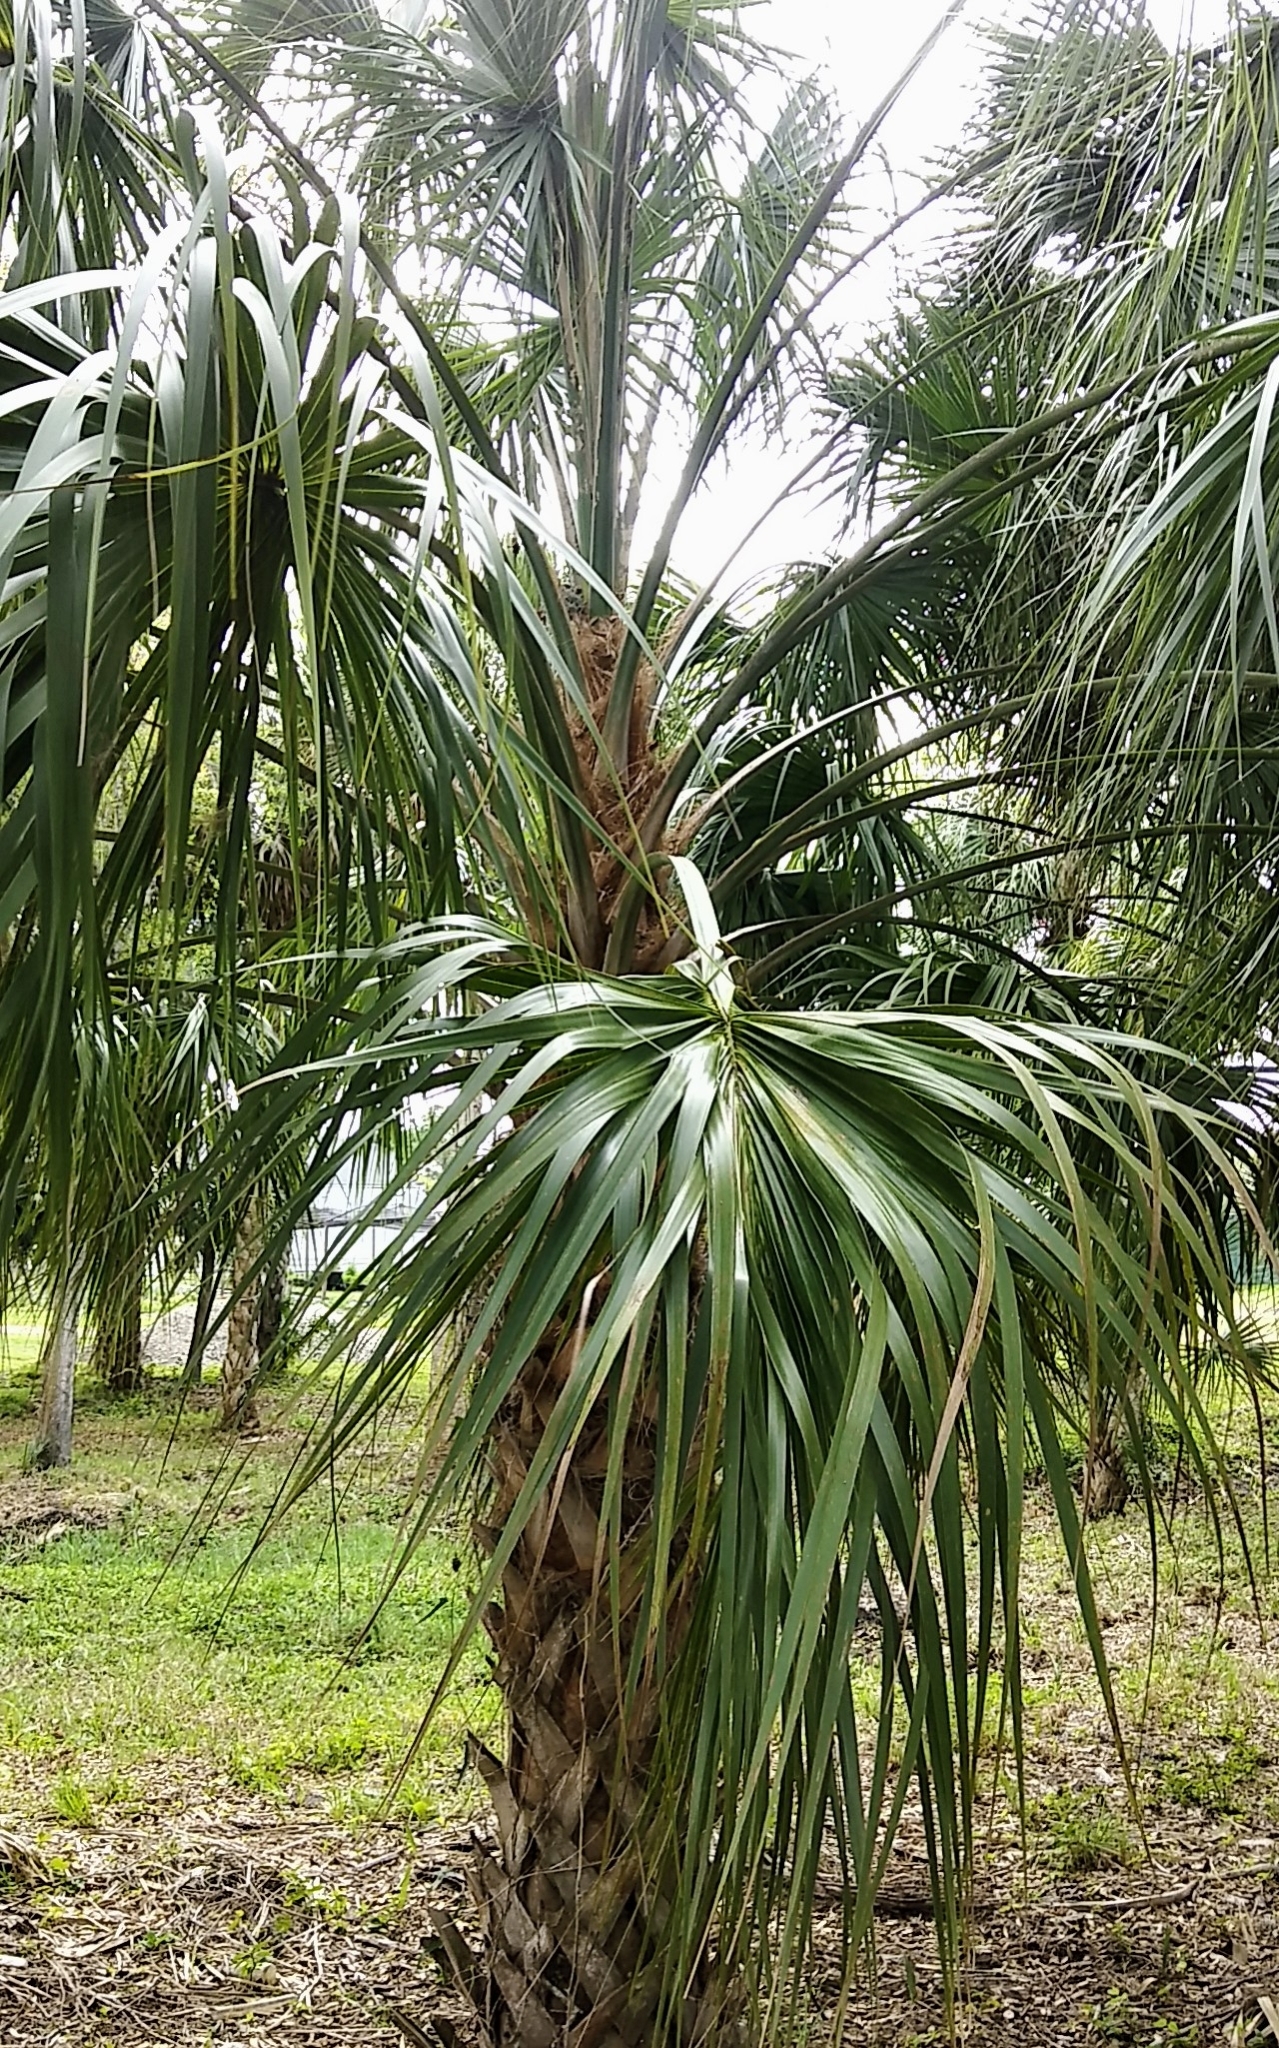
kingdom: Plantae
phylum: Tracheophyta
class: Liliopsida
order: Arecales
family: Arecaceae
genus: Sabal
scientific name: Sabal palmetto
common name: Blue palmetto
